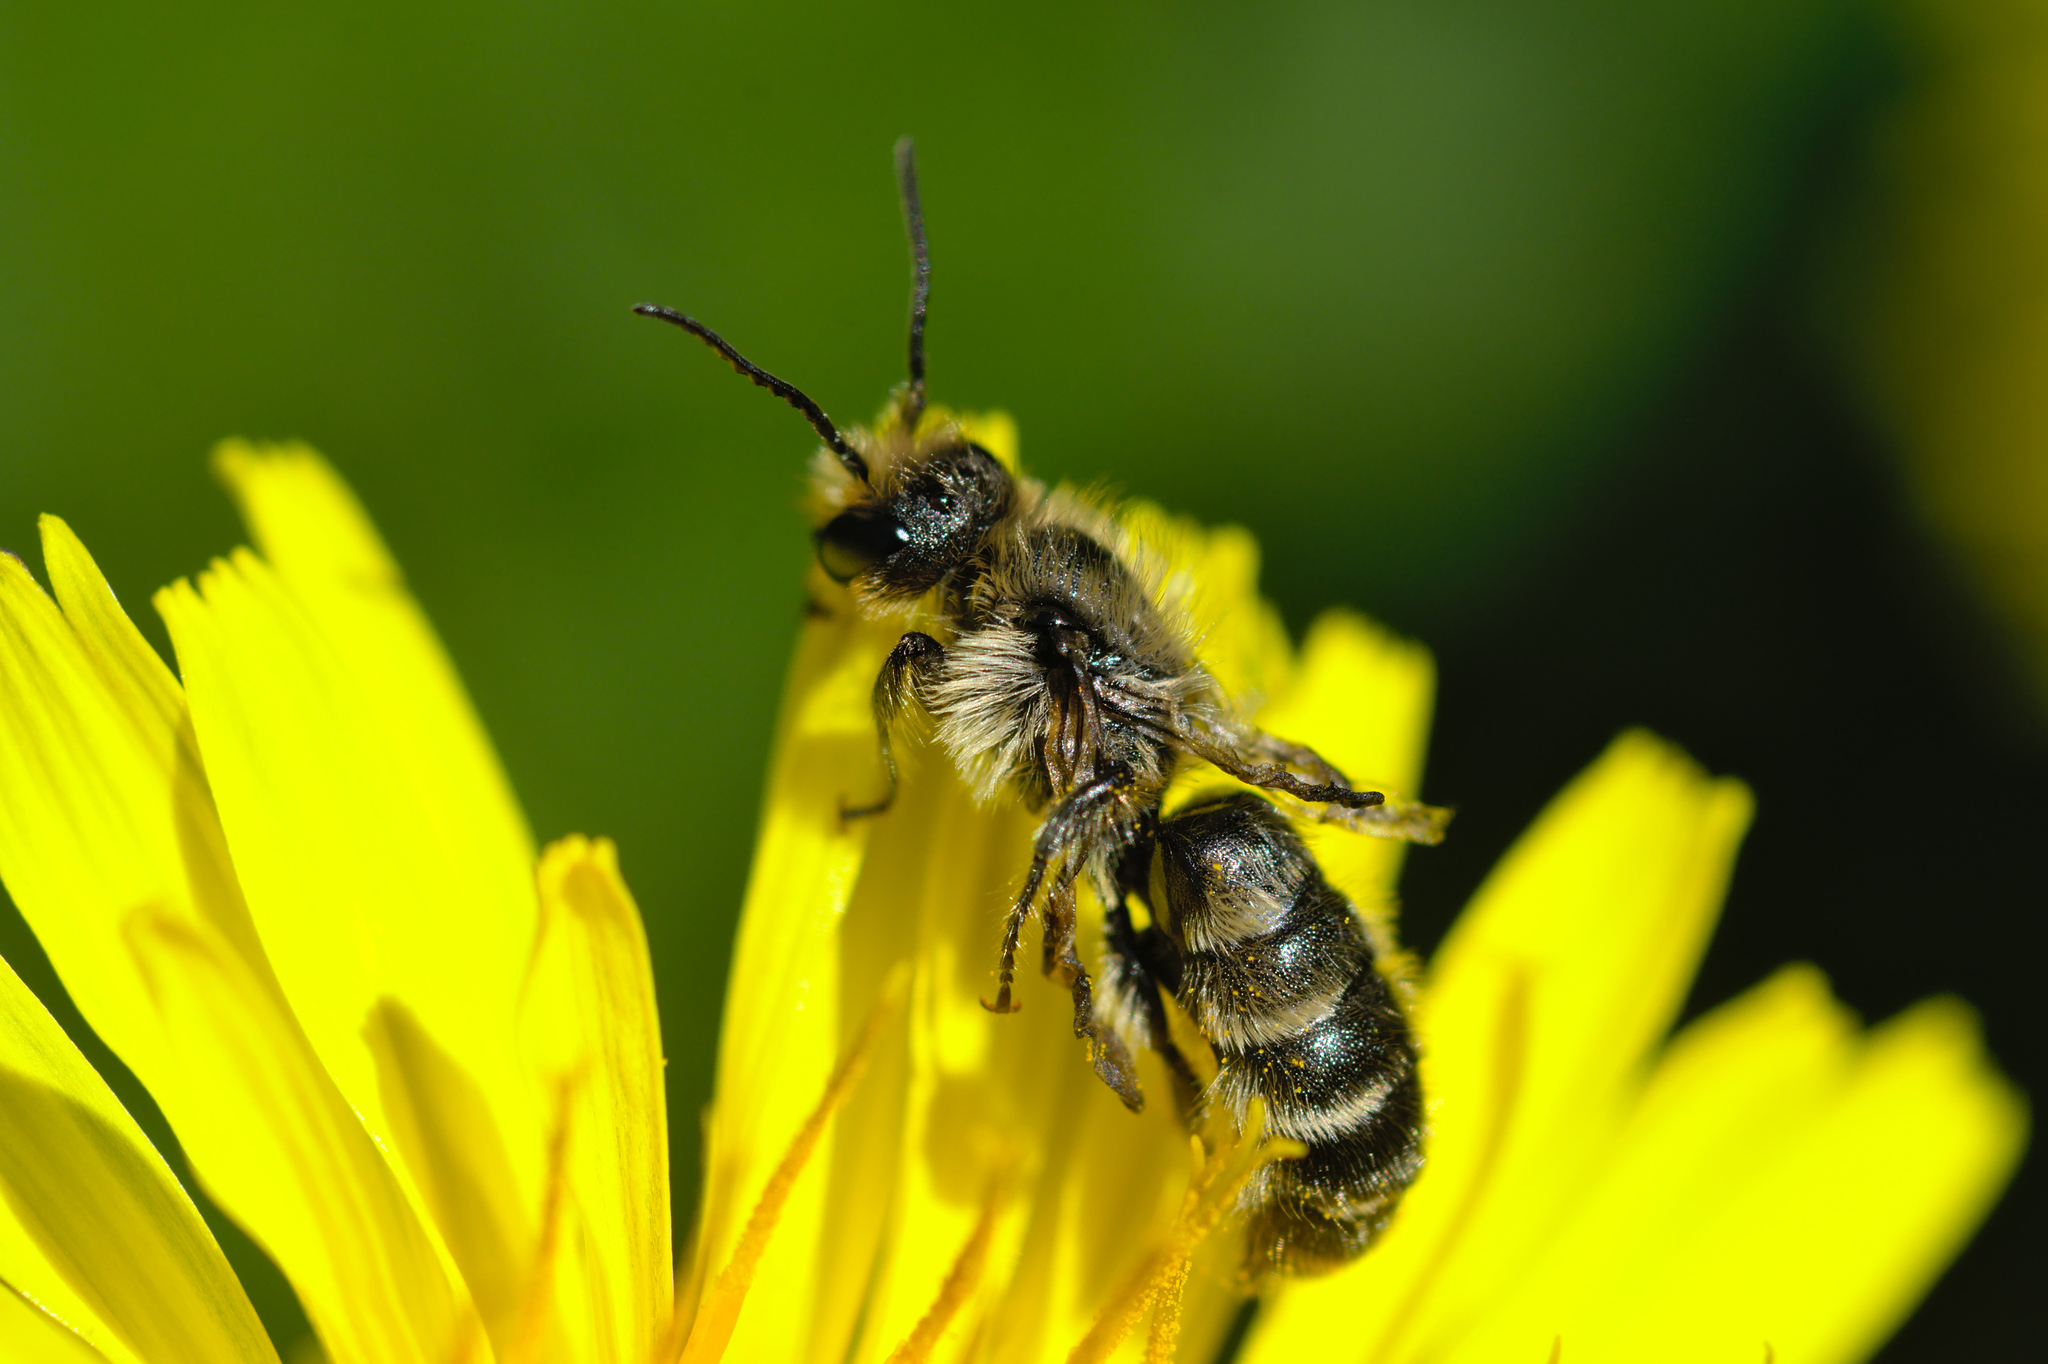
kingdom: Animalia
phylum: Arthropoda
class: Insecta
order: Hymenoptera
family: Megachilidae
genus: Chelostoma
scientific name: Chelostoma florisomne
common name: Sleepy carpenter bee
